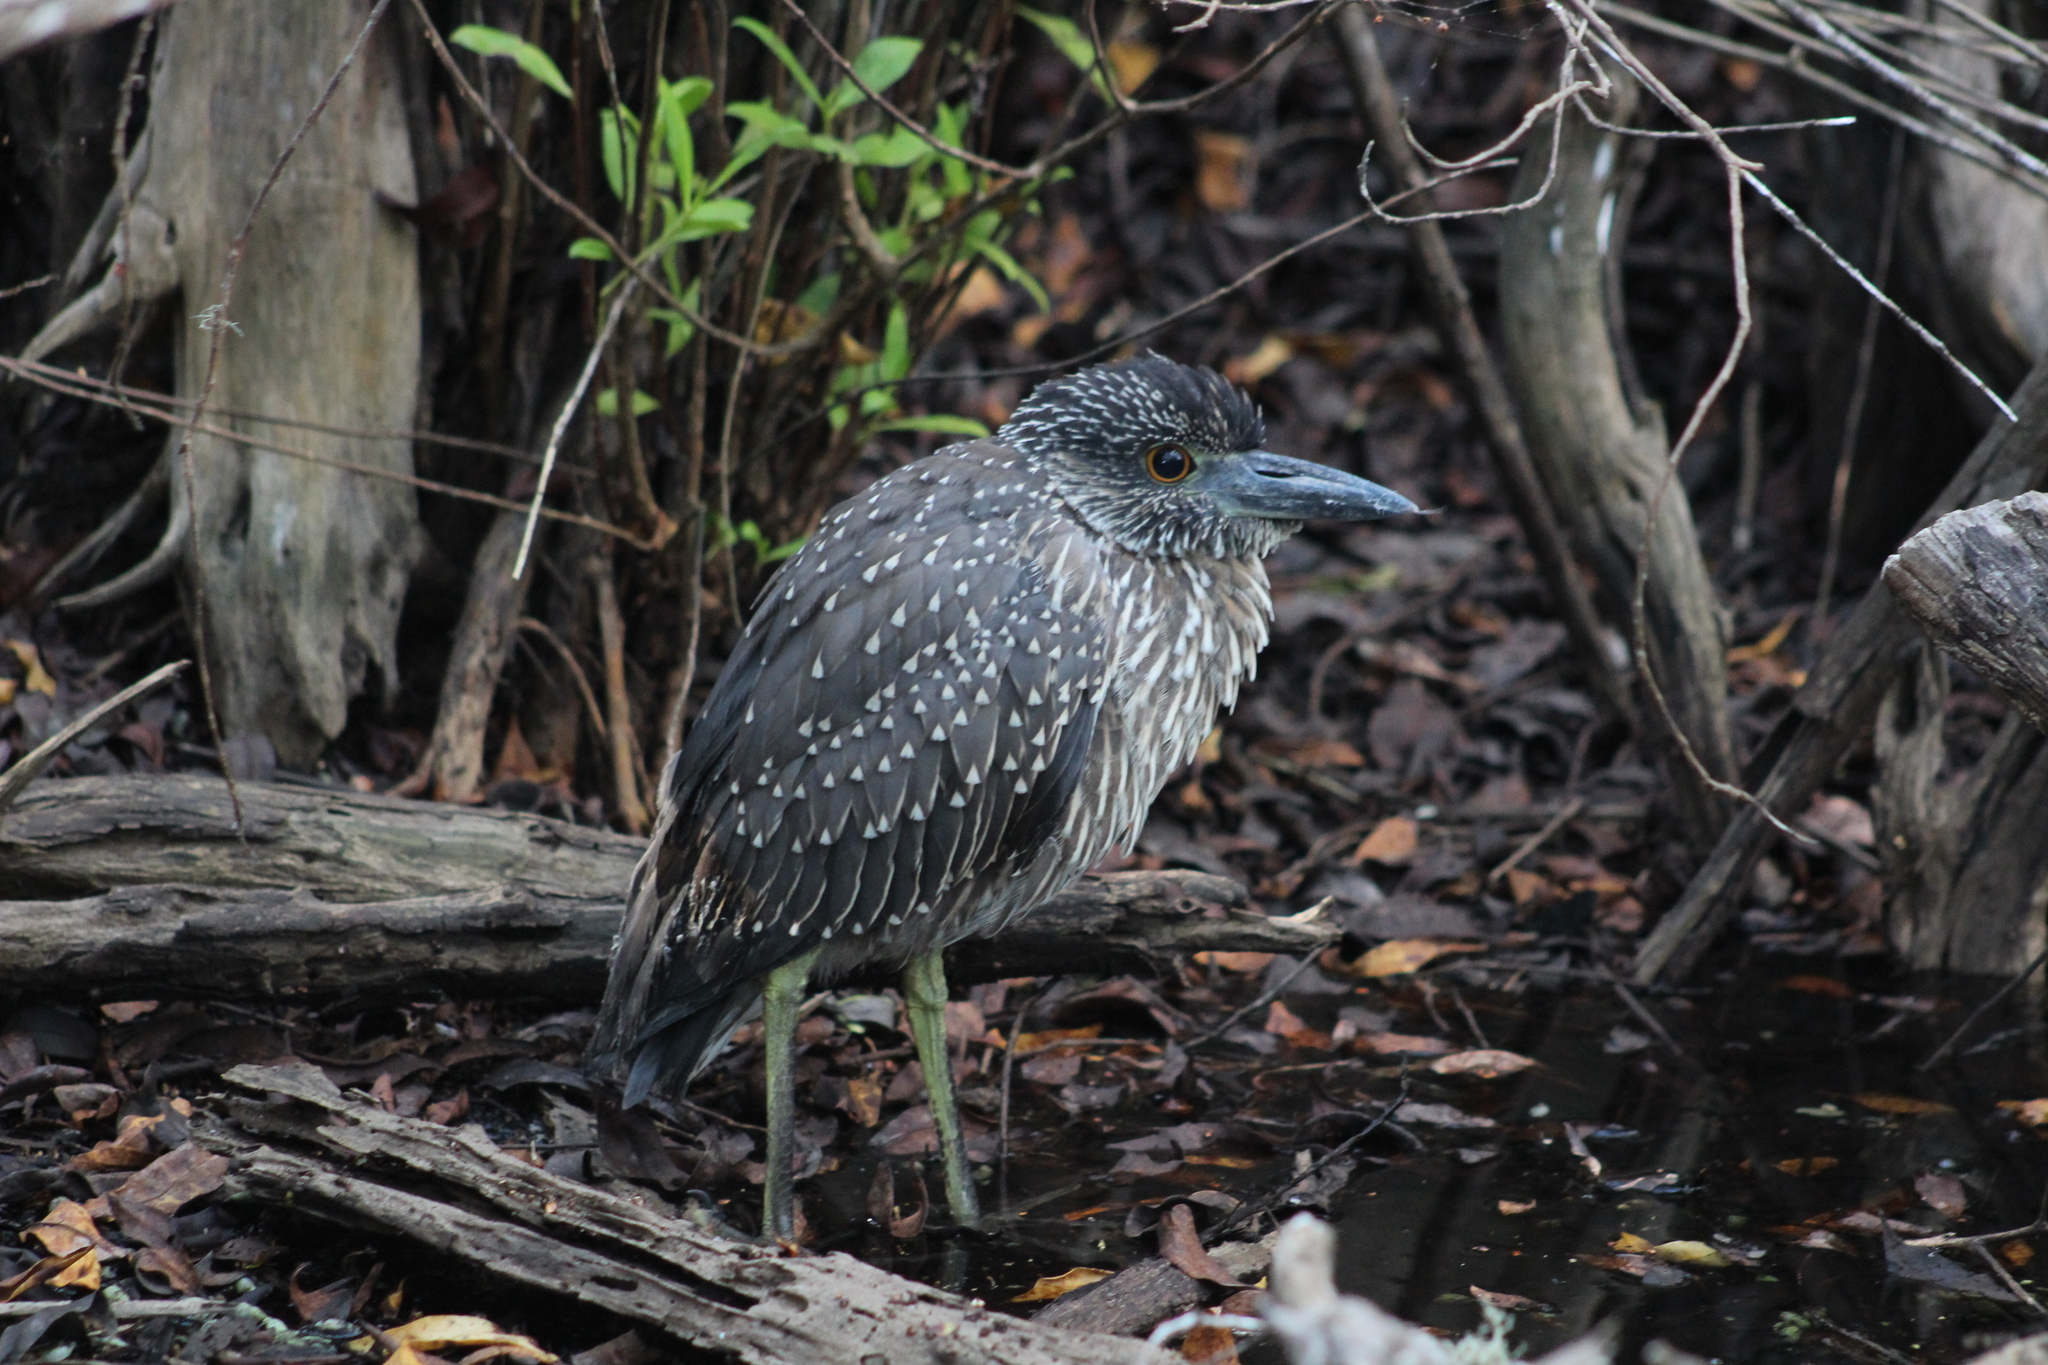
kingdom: Animalia
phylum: Chordata
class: Aves
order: Pelecaniformes
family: Ardeidae
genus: Nyctanassa
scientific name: Nyctanassa violacea
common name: Yellow-crowned night heron
